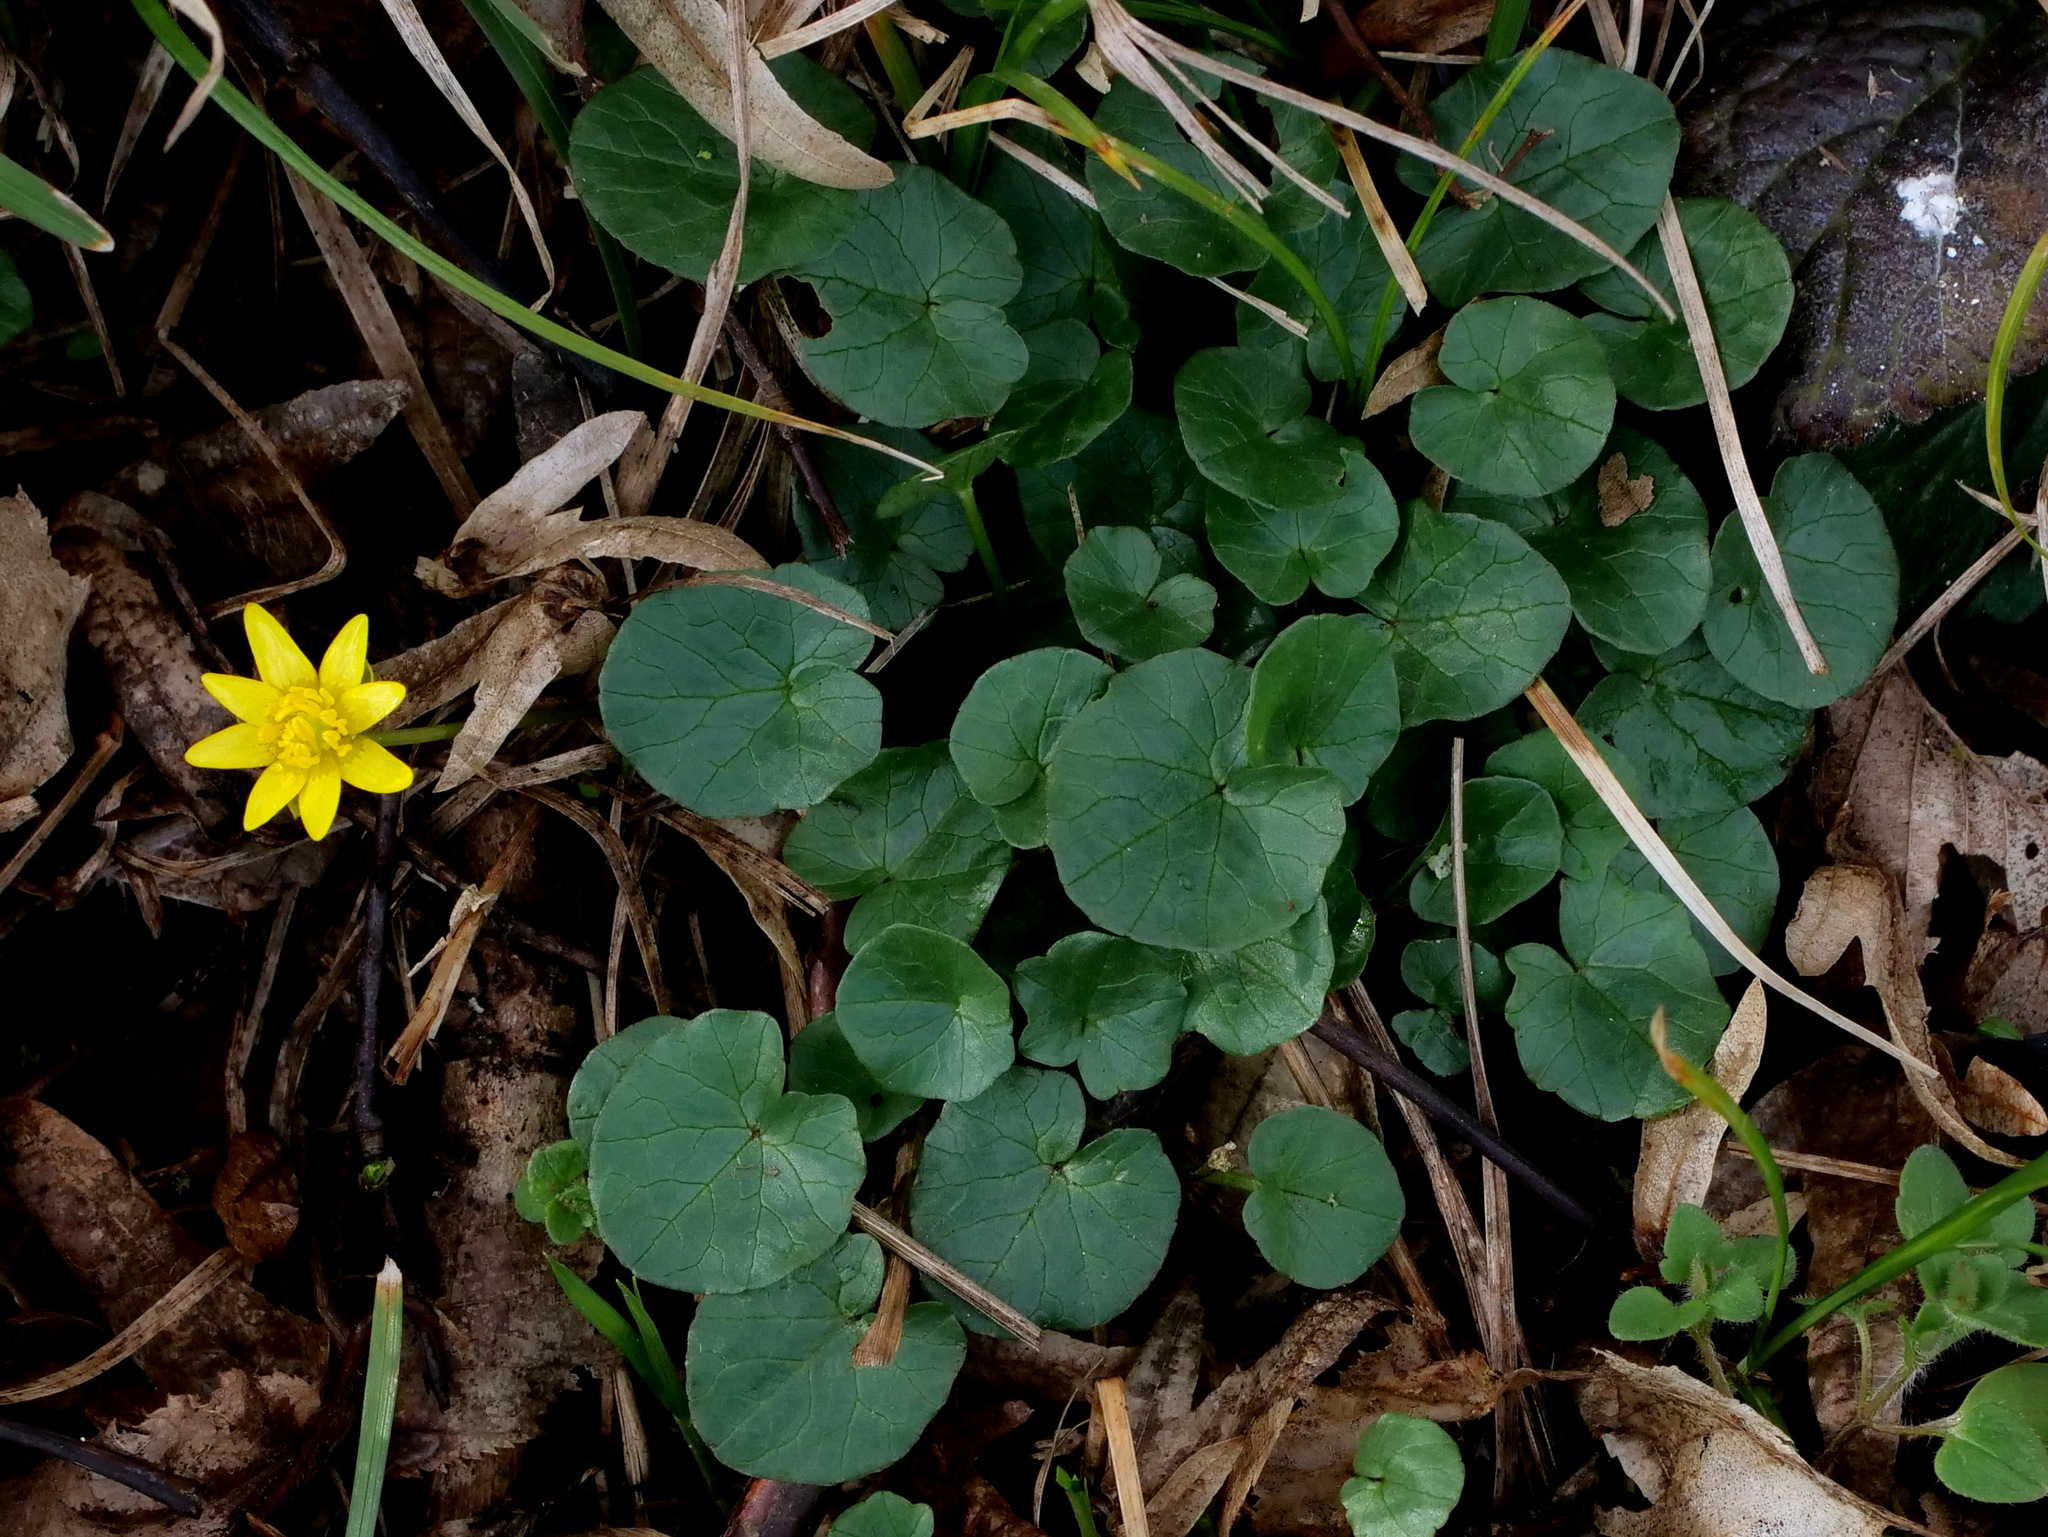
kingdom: Plantae
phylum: Tracheophyta
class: Magnoliopsida
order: Ranunculales
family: Ranunculaceae
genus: Ficaria
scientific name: Ficaria verna
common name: Lesser celandine
